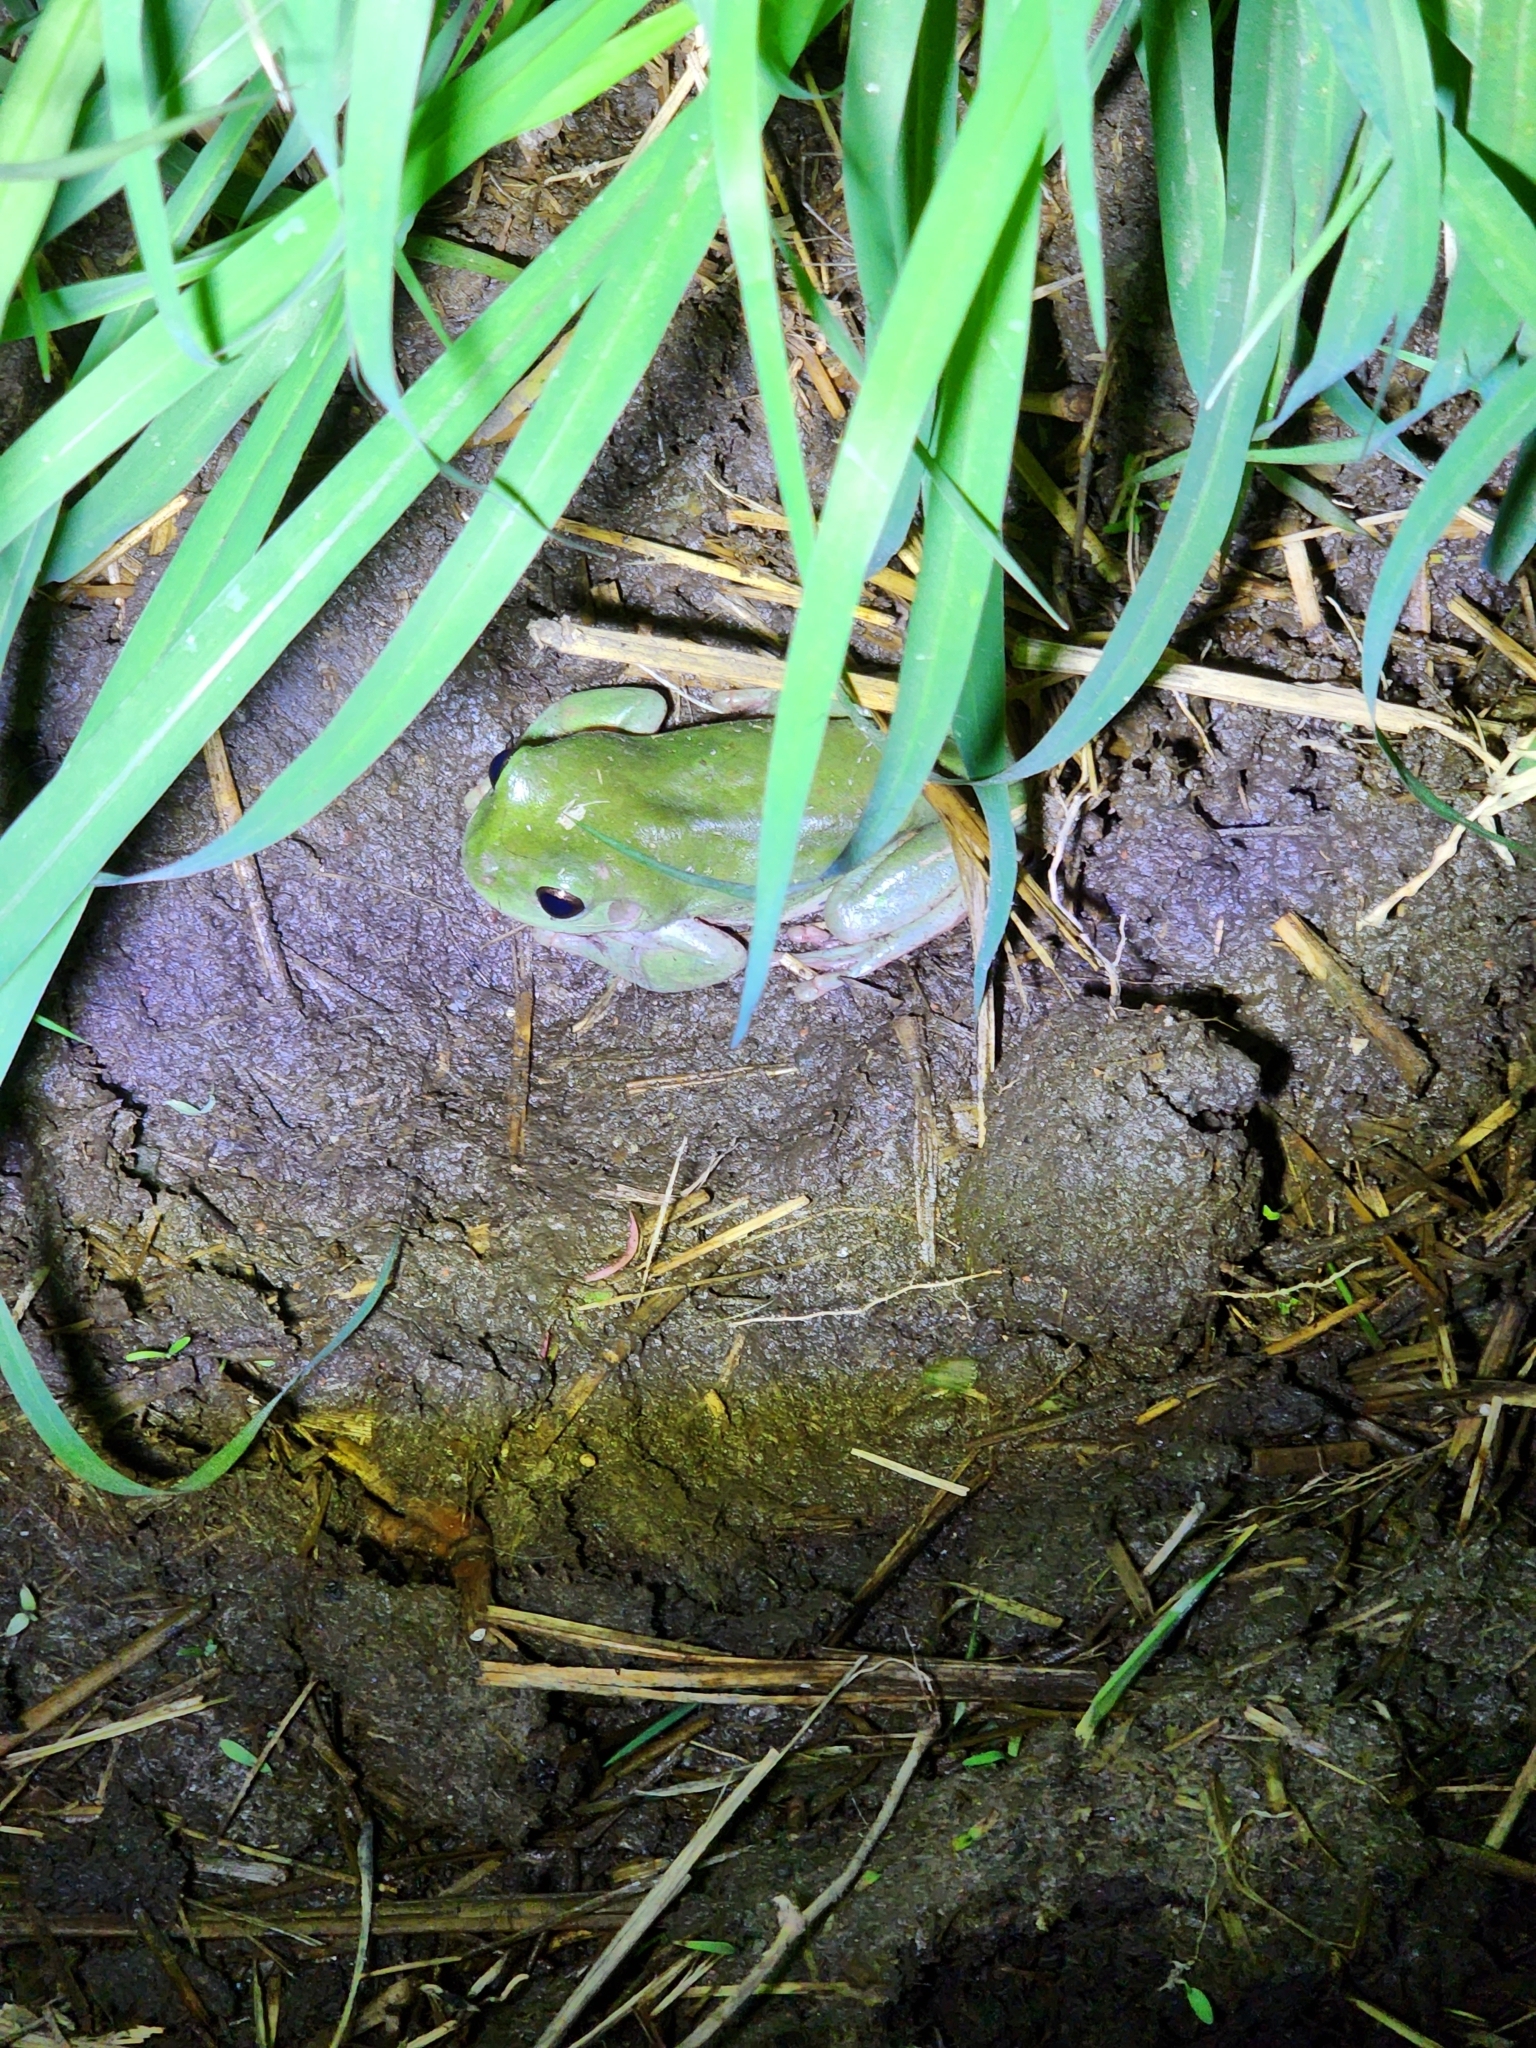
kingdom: Animalia
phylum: Chordata
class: Amphibia
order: Anura
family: Pelodryadidae
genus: Ranoidea
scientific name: Ranoidea caerulea
